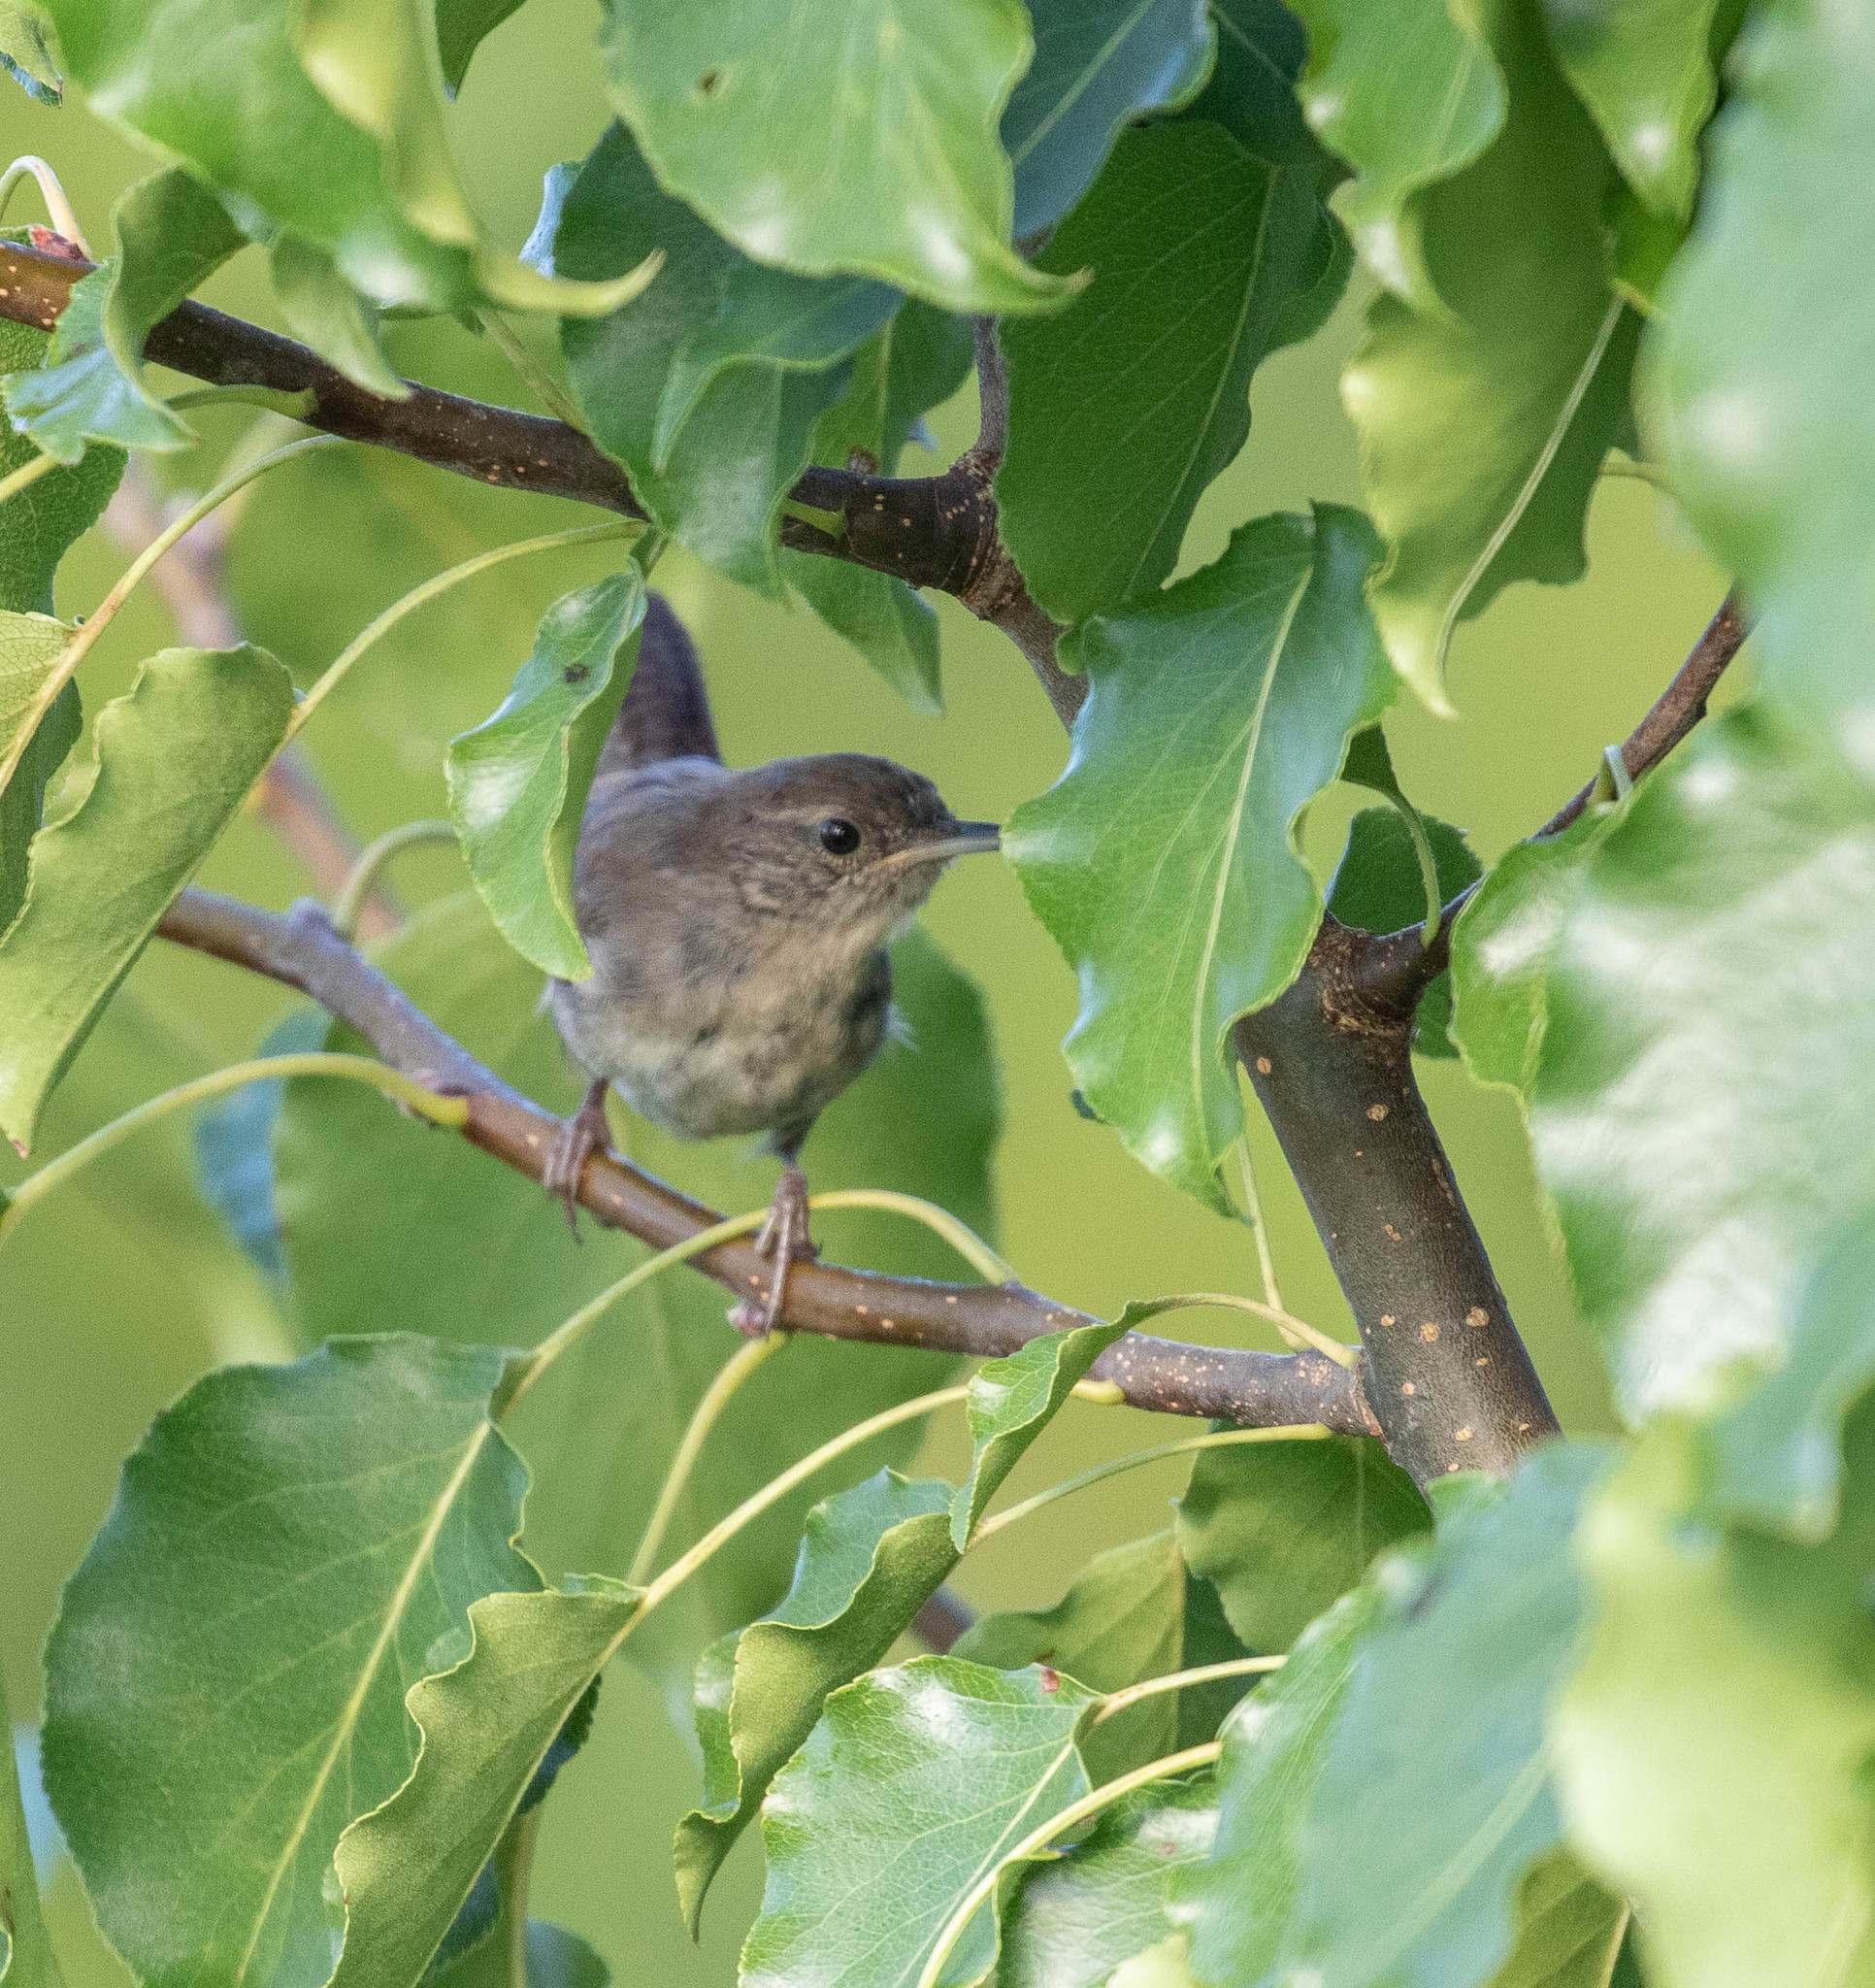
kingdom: Animalia
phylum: Chordata
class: Aves
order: Passeriformes
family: Troglodytidae
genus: Troglodytes
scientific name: Troglodytes aedon
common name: House wren
